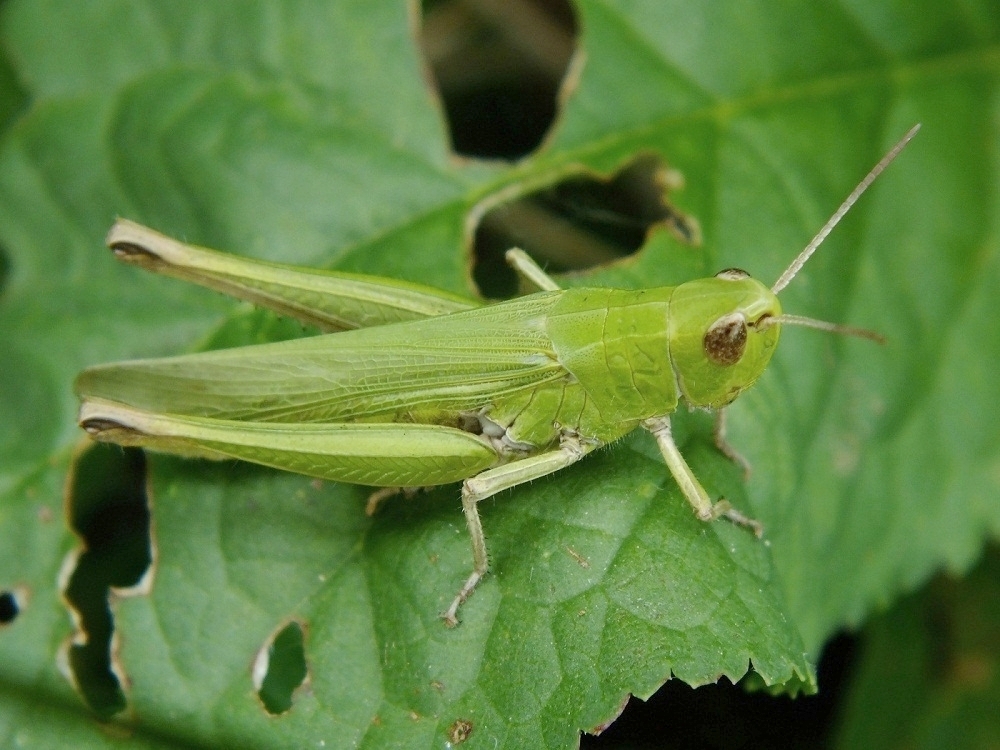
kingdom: Animalia
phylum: Arthropoda
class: Insecta
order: Orthoptera
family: Acrididae
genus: Chorthippus
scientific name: Chorthippus dichrous
